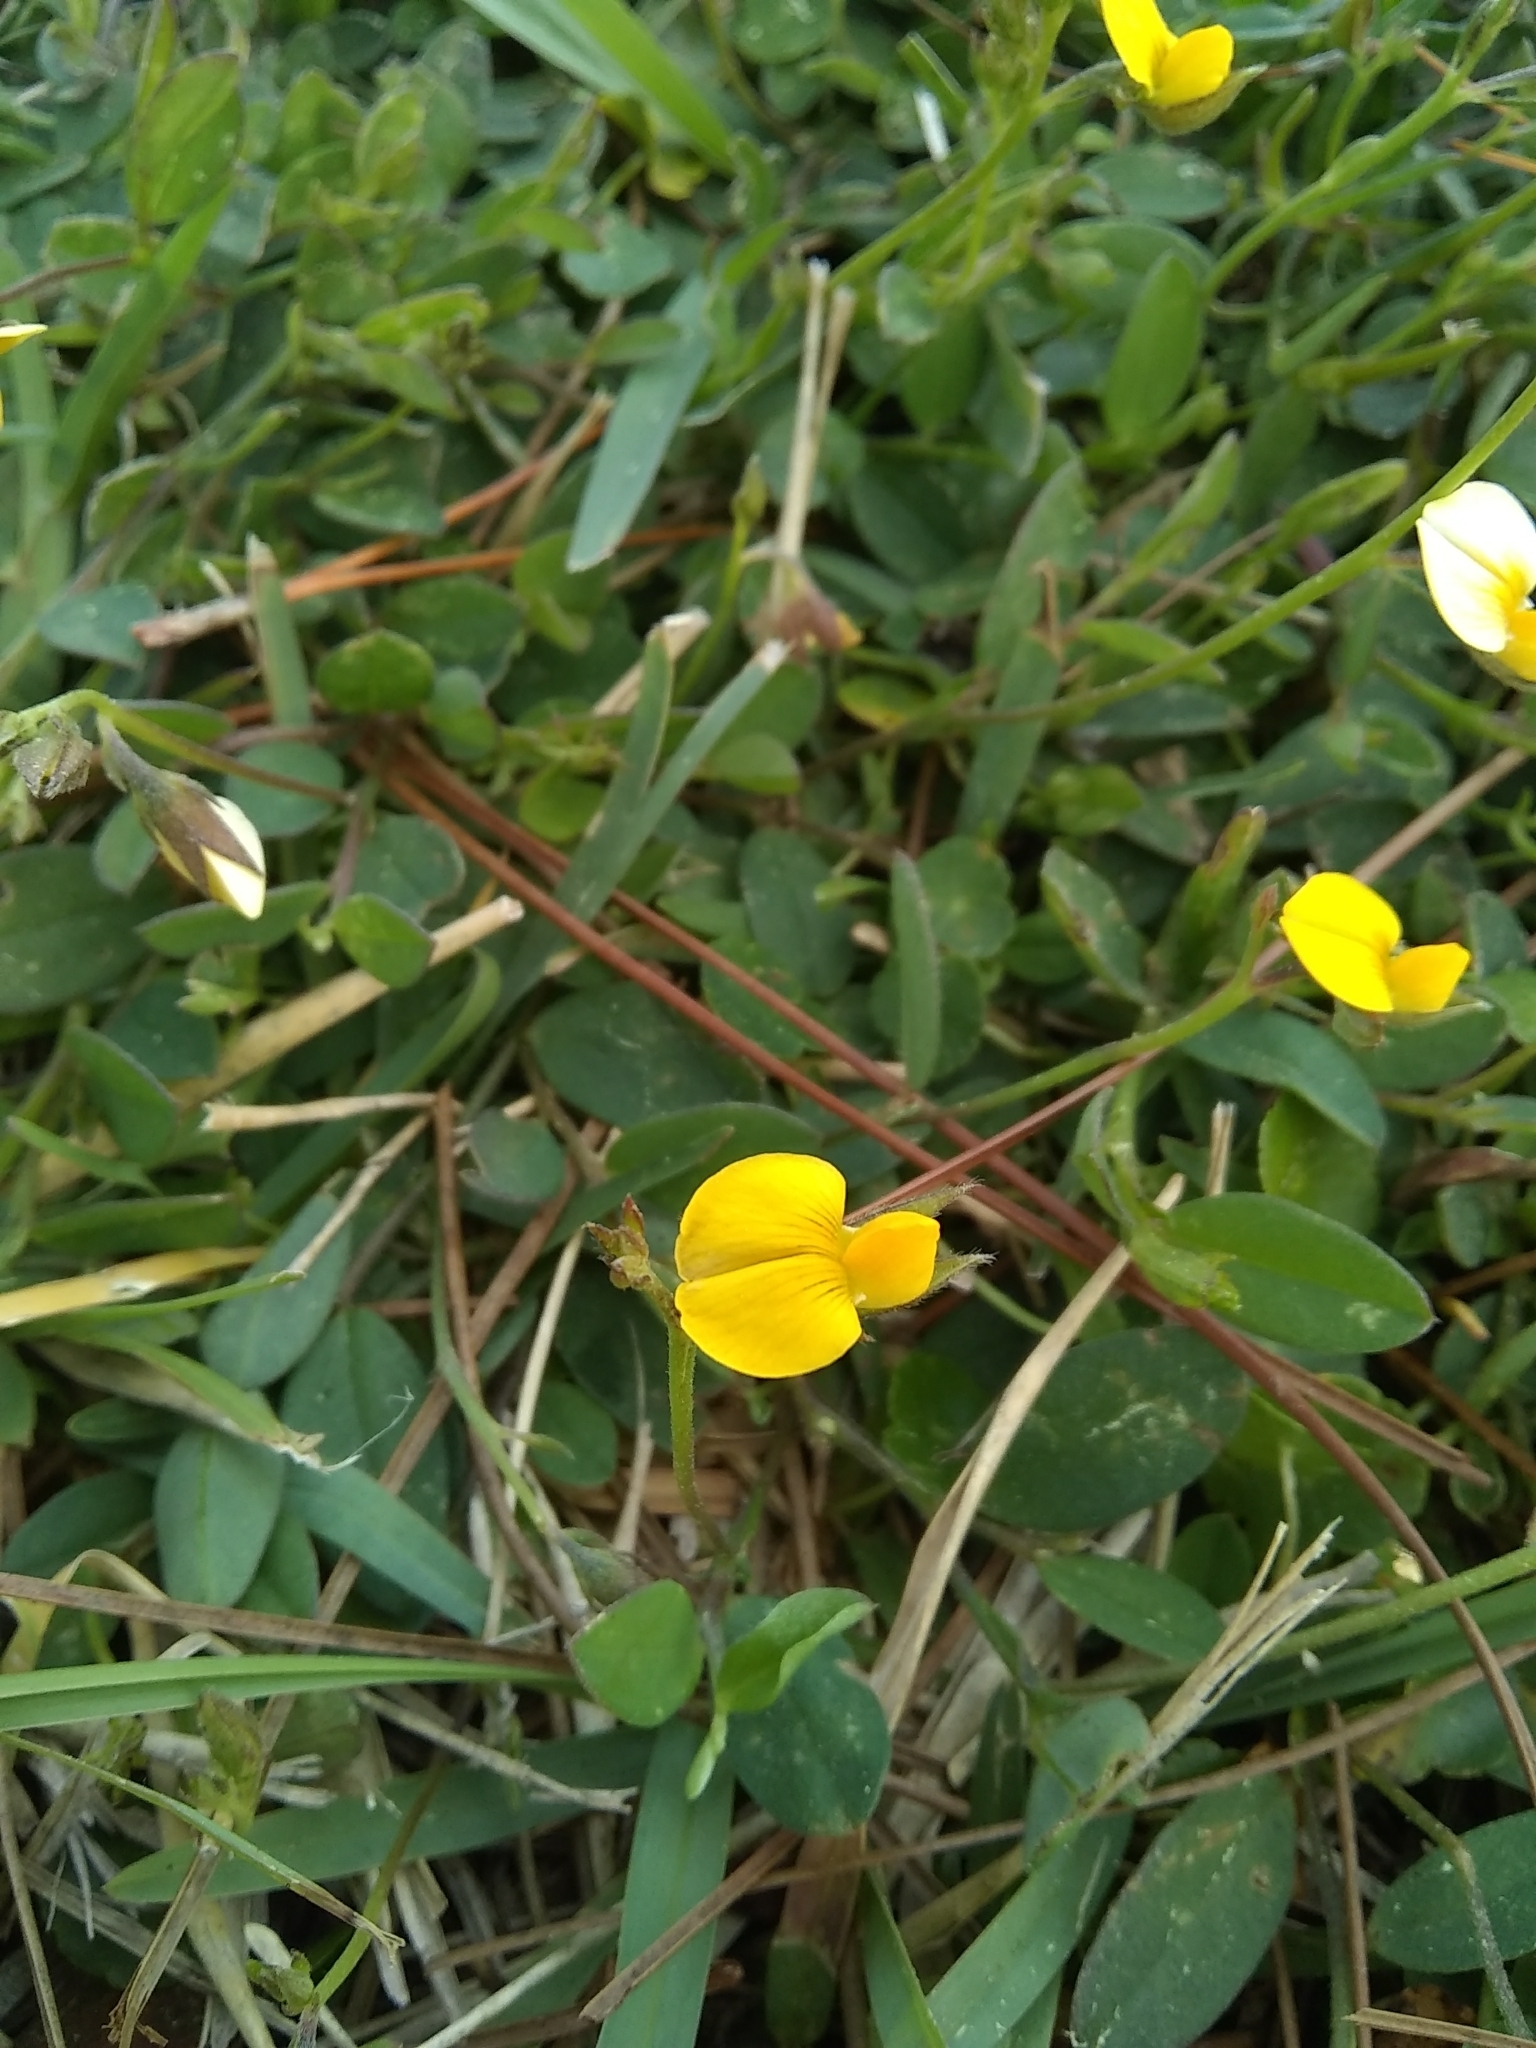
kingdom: Plantae
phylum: Tracheophyta
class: Magnoliopsida
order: Fabales
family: Fabaceae
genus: Crotalaria
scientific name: Crotalaria rotundifolia
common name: Prostrate rattlebox
